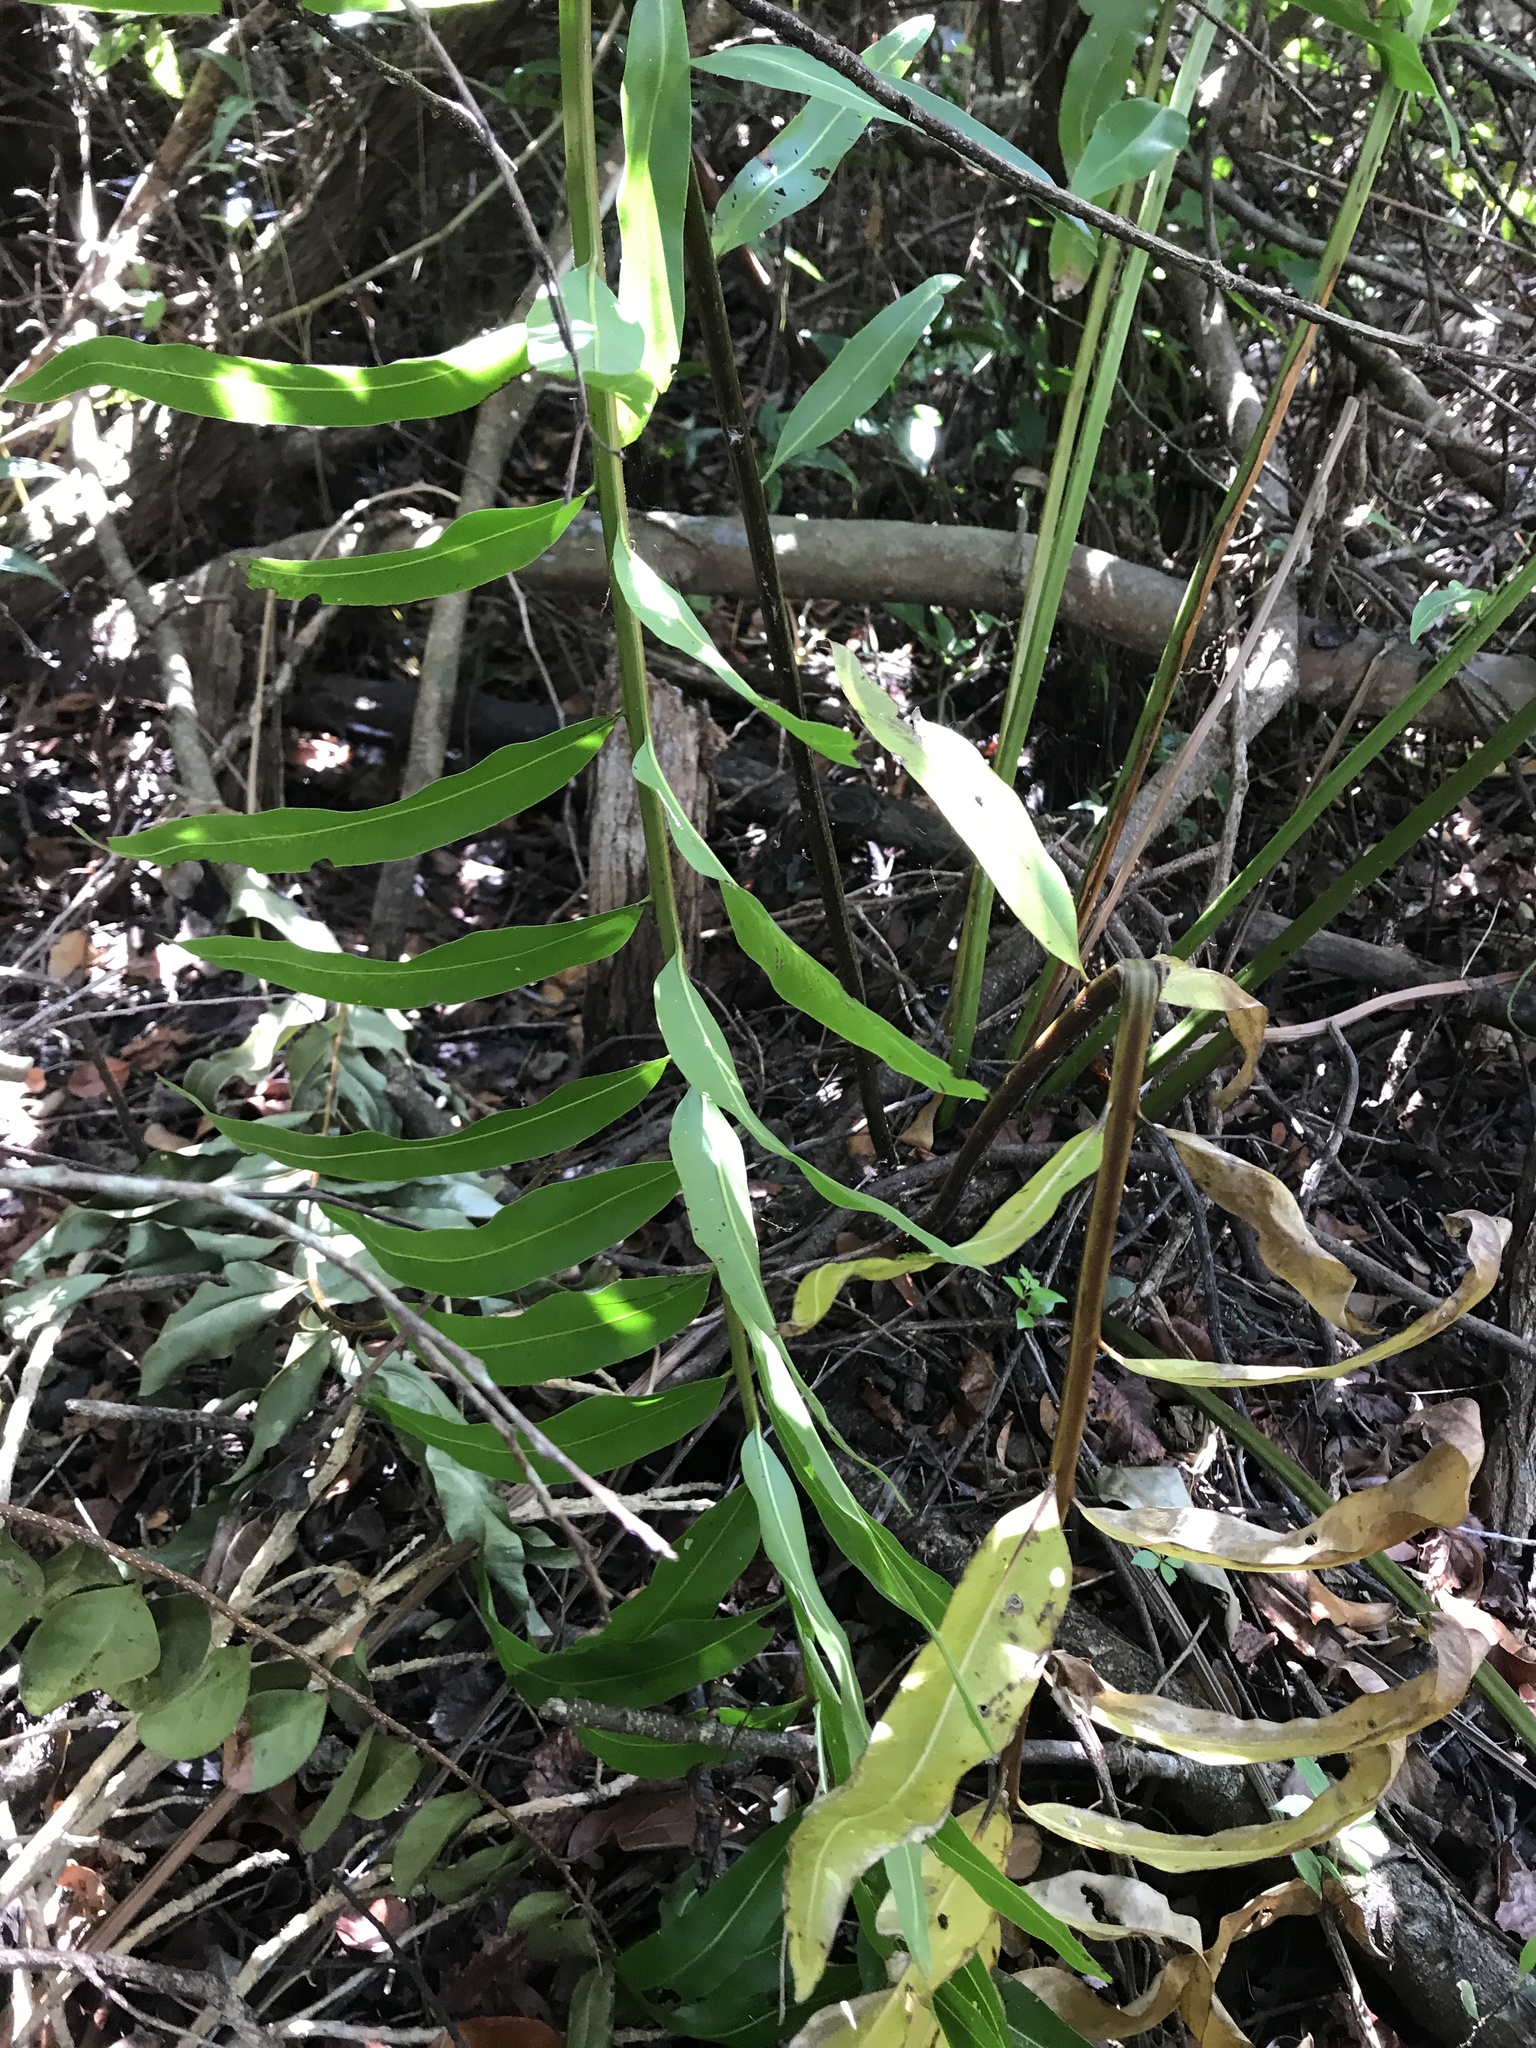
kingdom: Plantae
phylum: Tracheophyta
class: Polypodiopsida
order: Polypodiales
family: Pteridaceae
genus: Acrostichum
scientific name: Acrostichum danaeifolium
